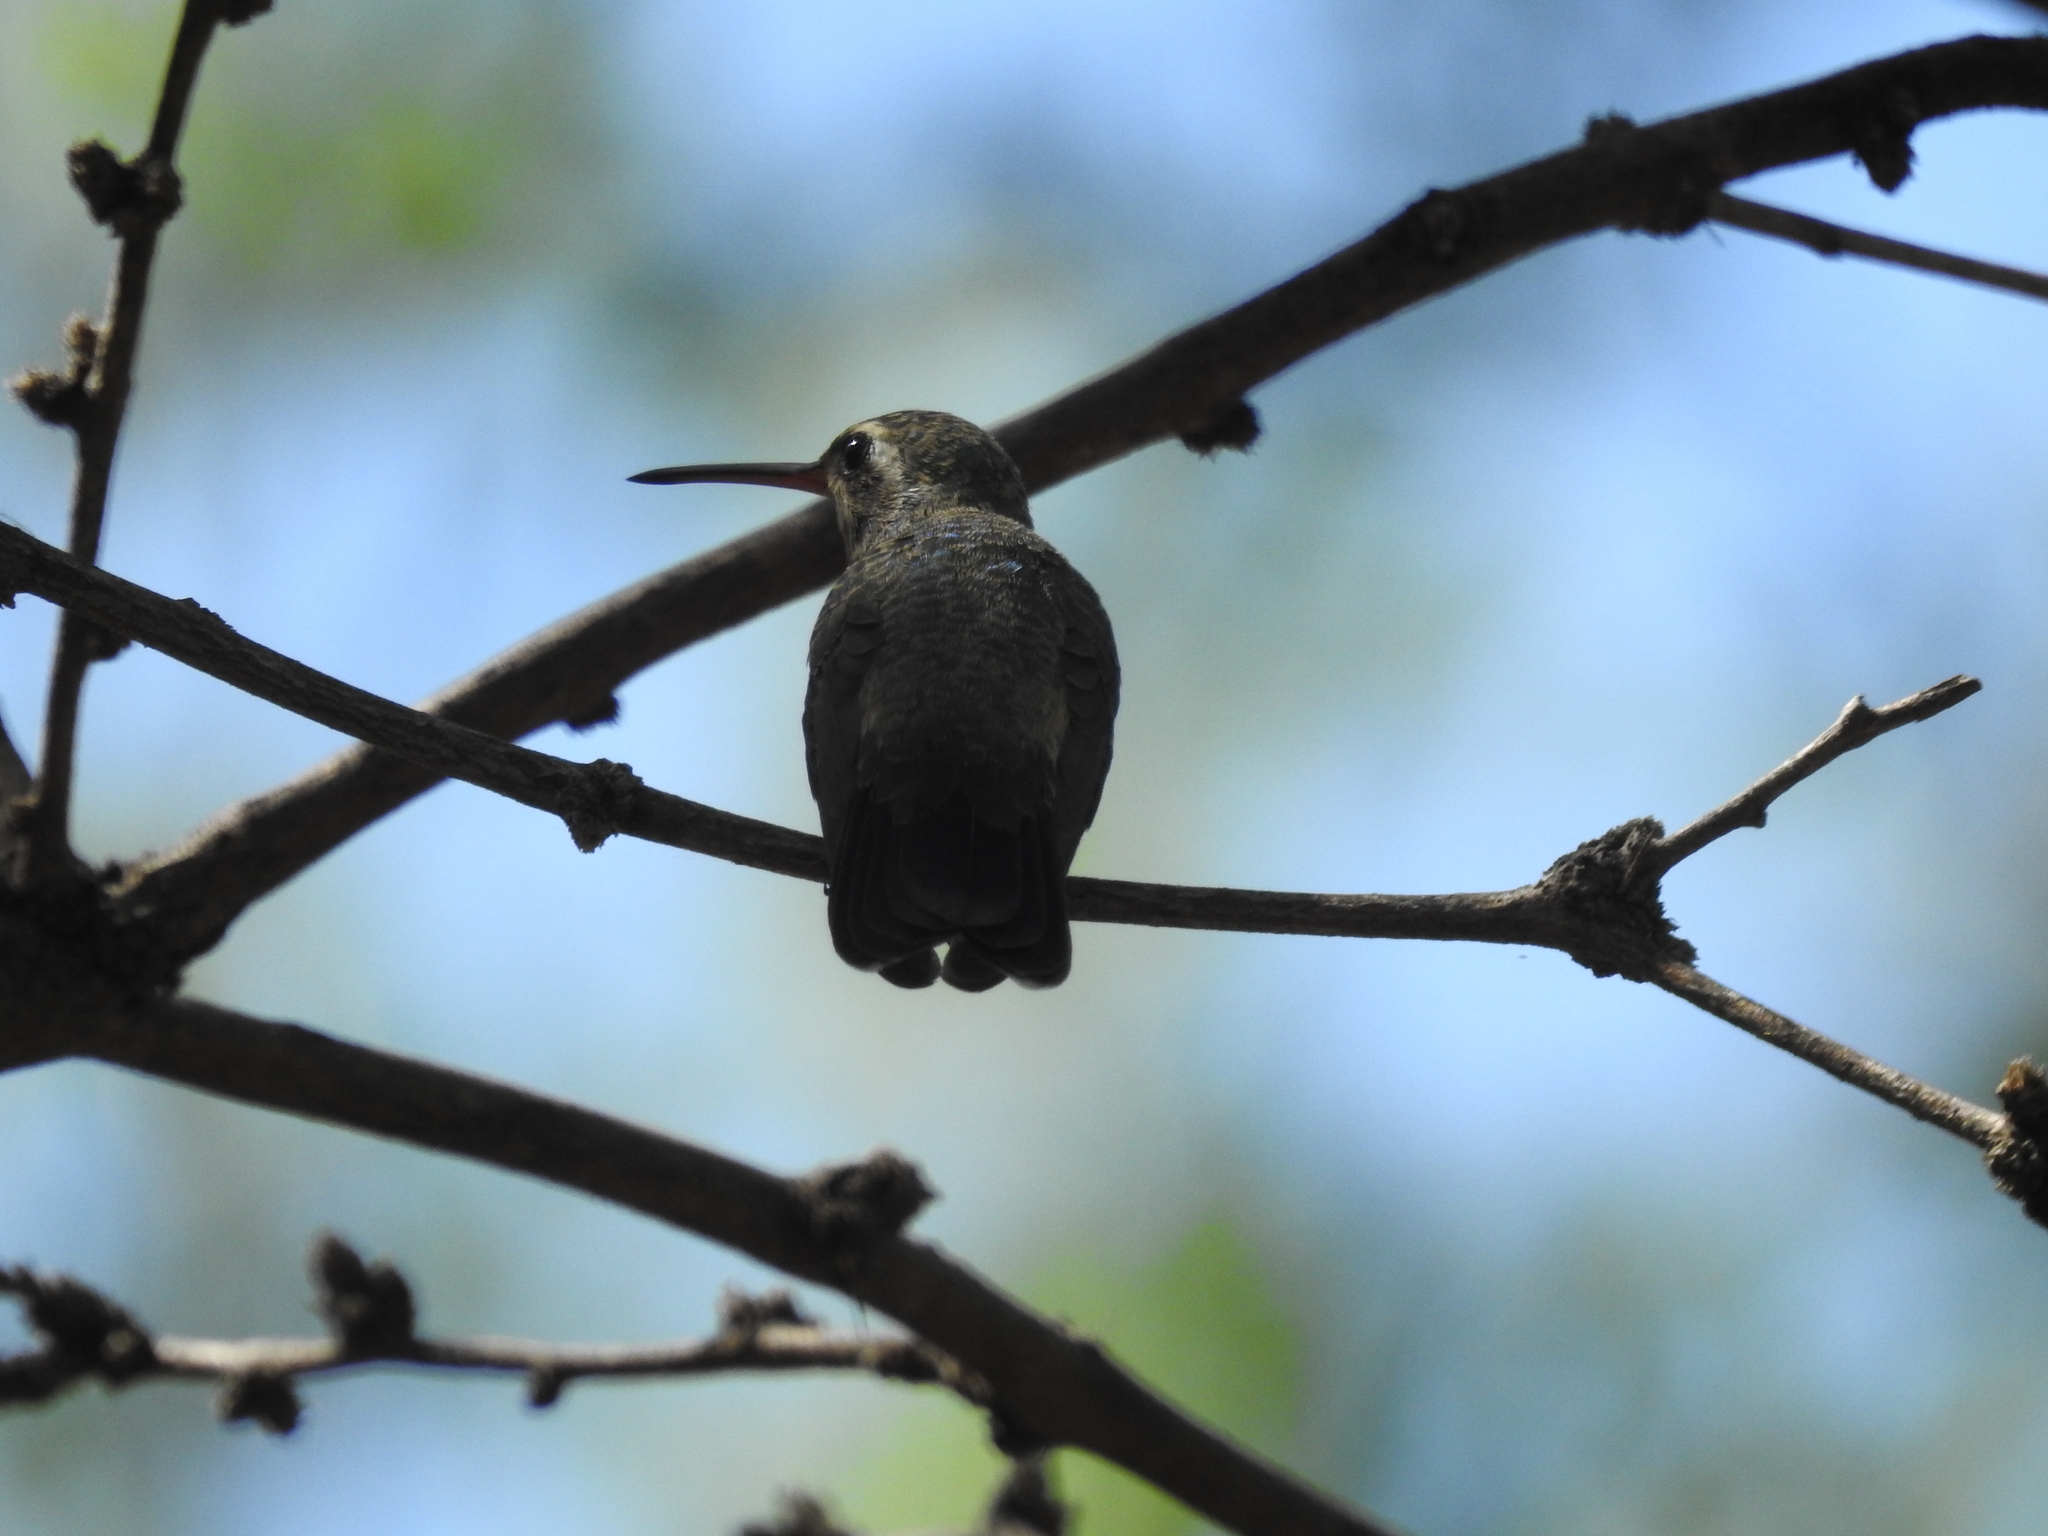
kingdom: Animalia
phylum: Chordata
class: Aves
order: Apodiformes
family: Trochilidae
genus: Cynanthus
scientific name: Cynanthus latirostris
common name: Broad-billed hummingbird
